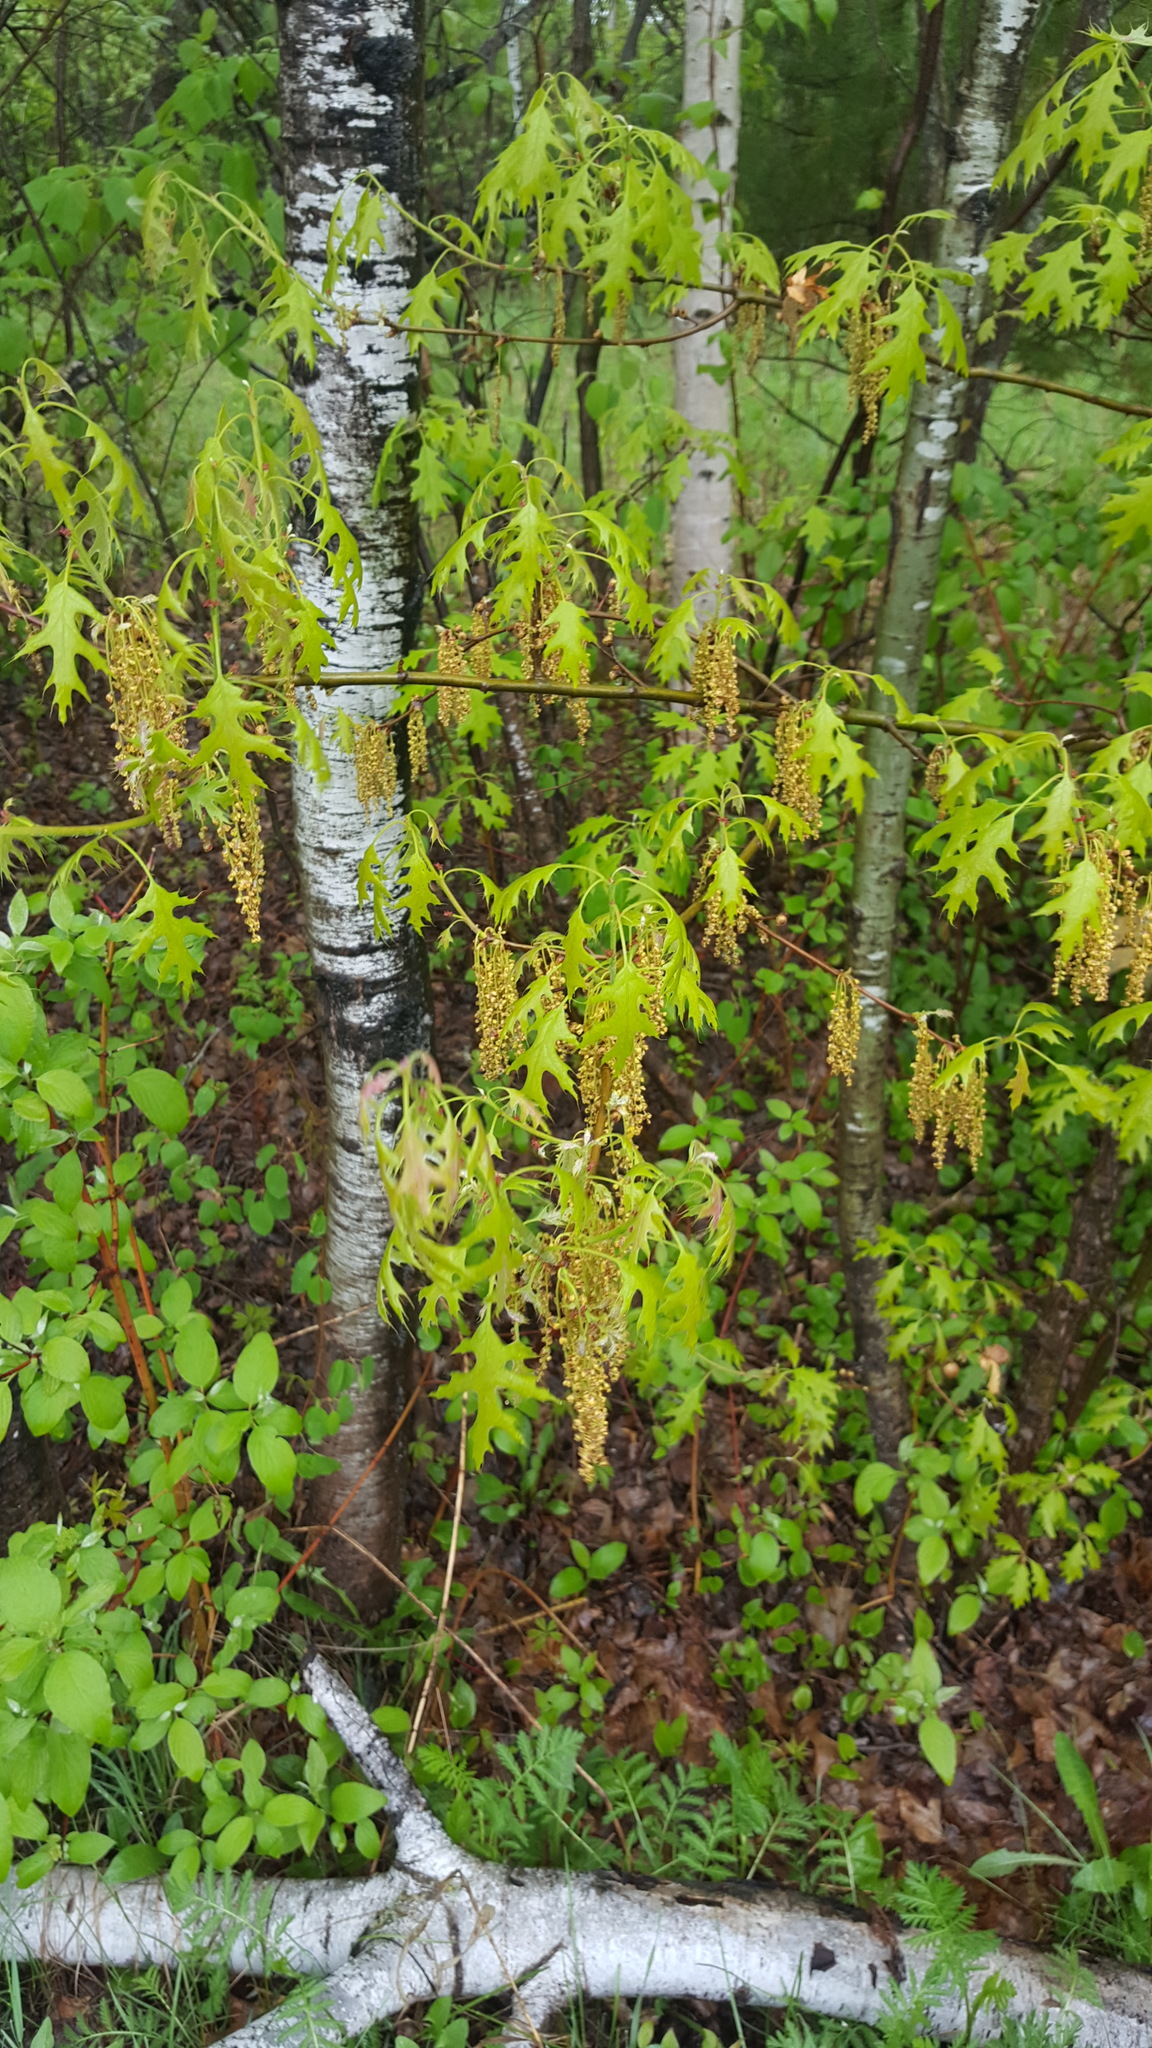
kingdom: Plantae
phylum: Tracheophyta
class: Magnoliopsida
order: Fagales
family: Fagaceae
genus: Quercus
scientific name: Quercus ellipsoidalis
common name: Hill's oak
